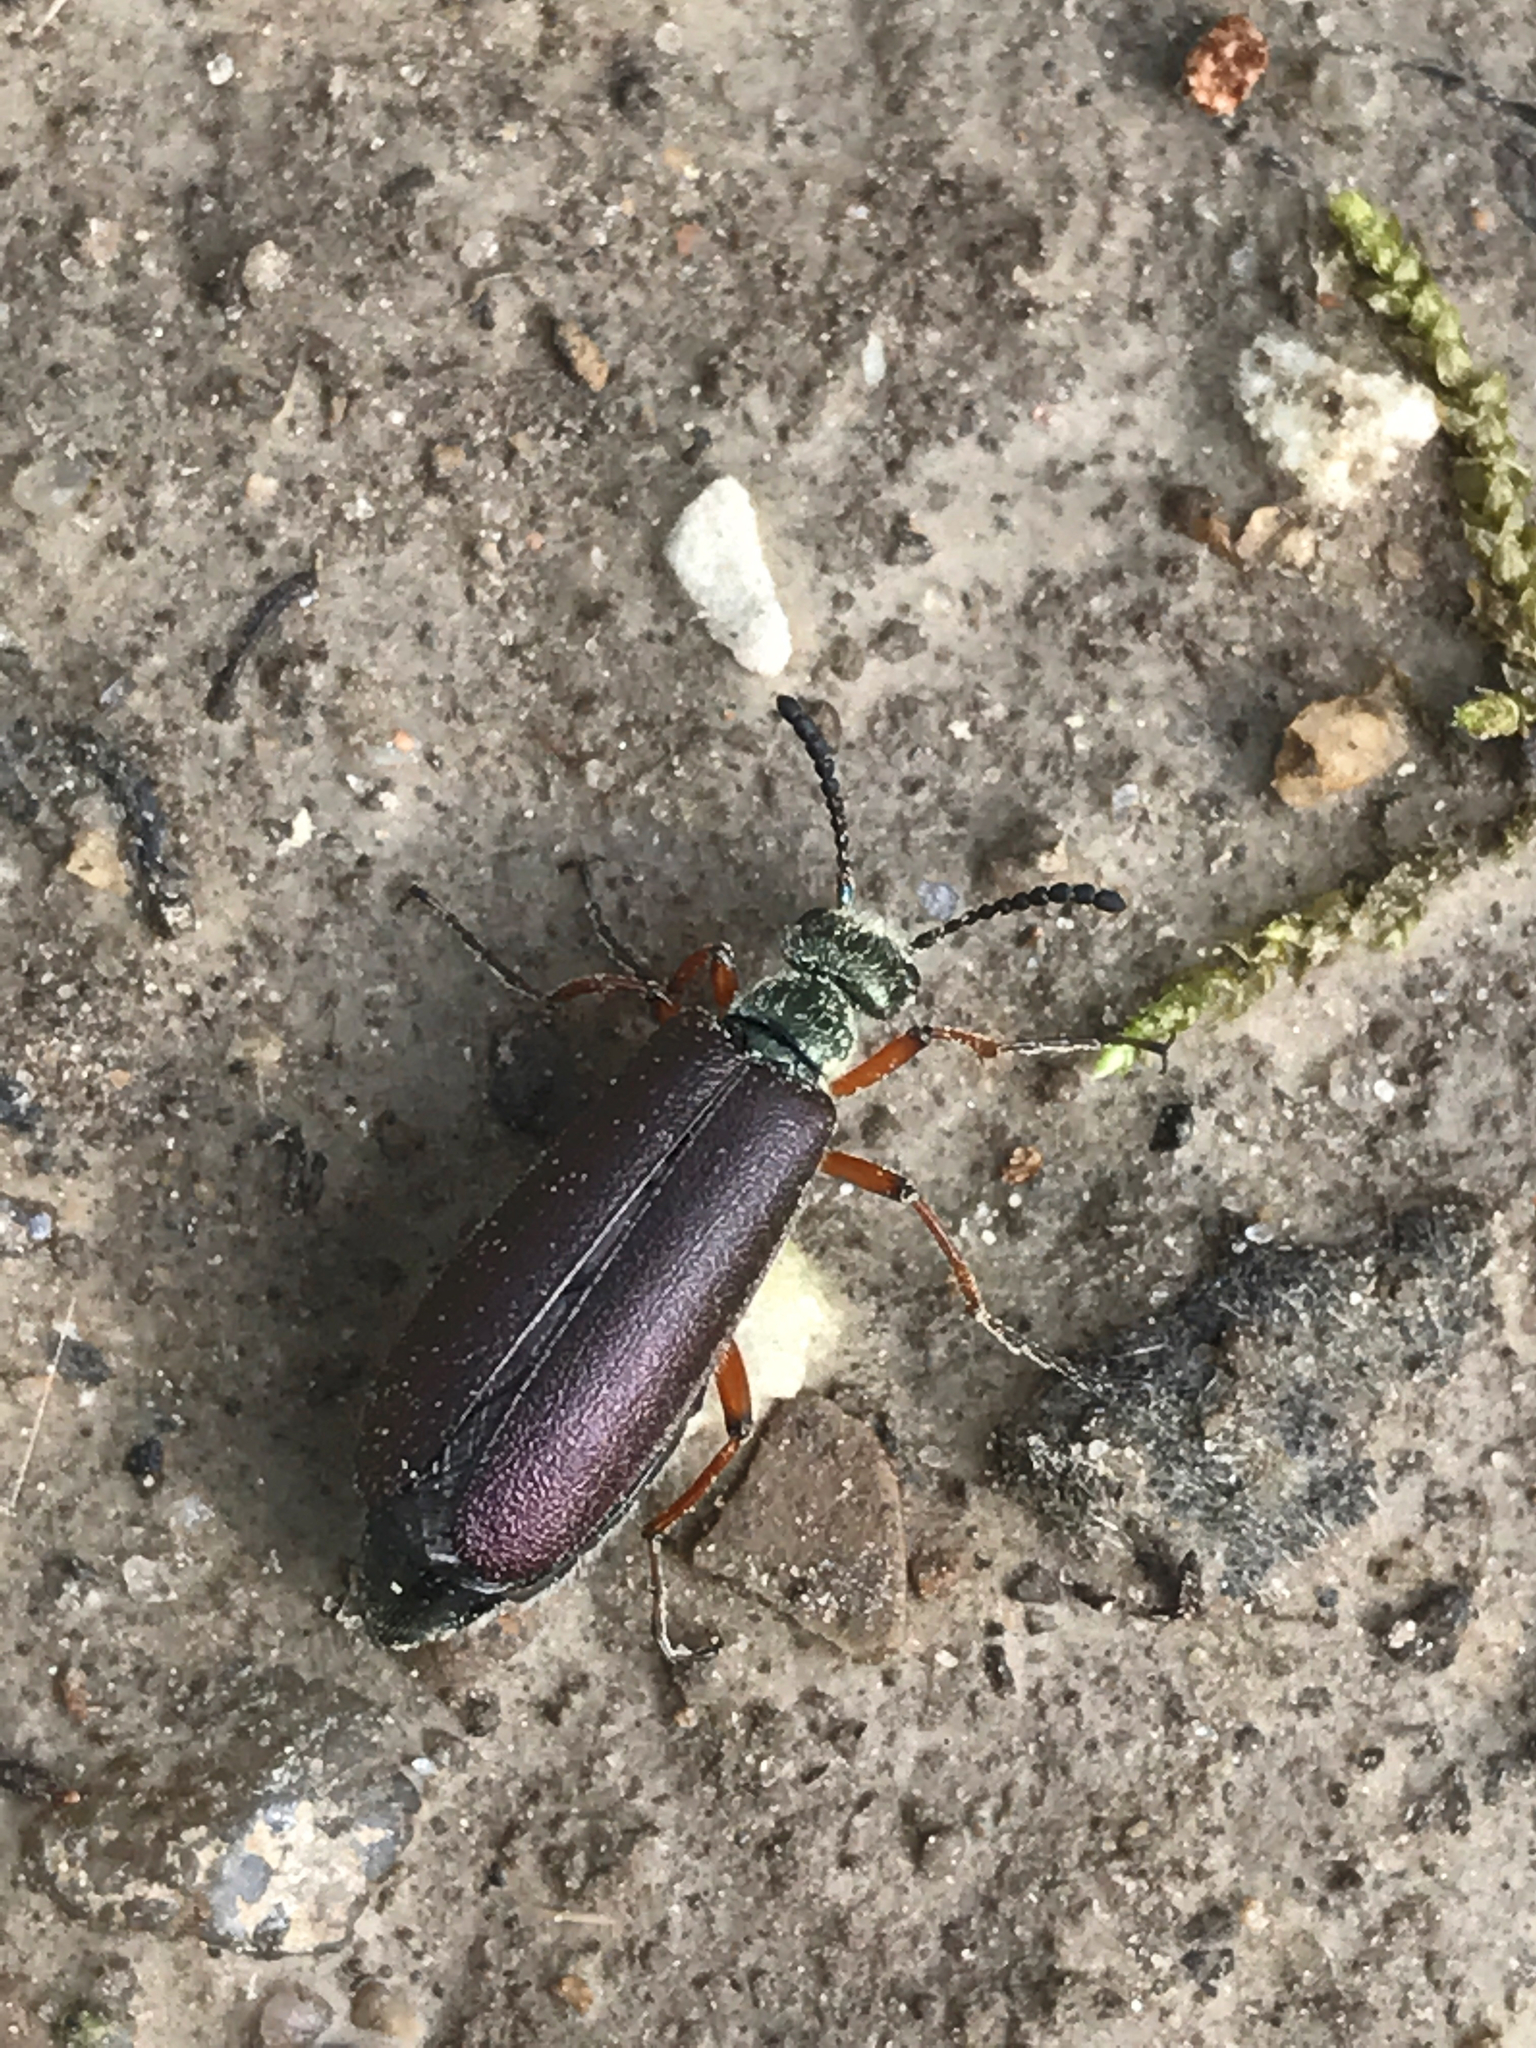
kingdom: Animalia
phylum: Arthropoda
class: Insecta
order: Coleoptera
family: Meloidae
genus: Lytta
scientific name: Lytta aenea
